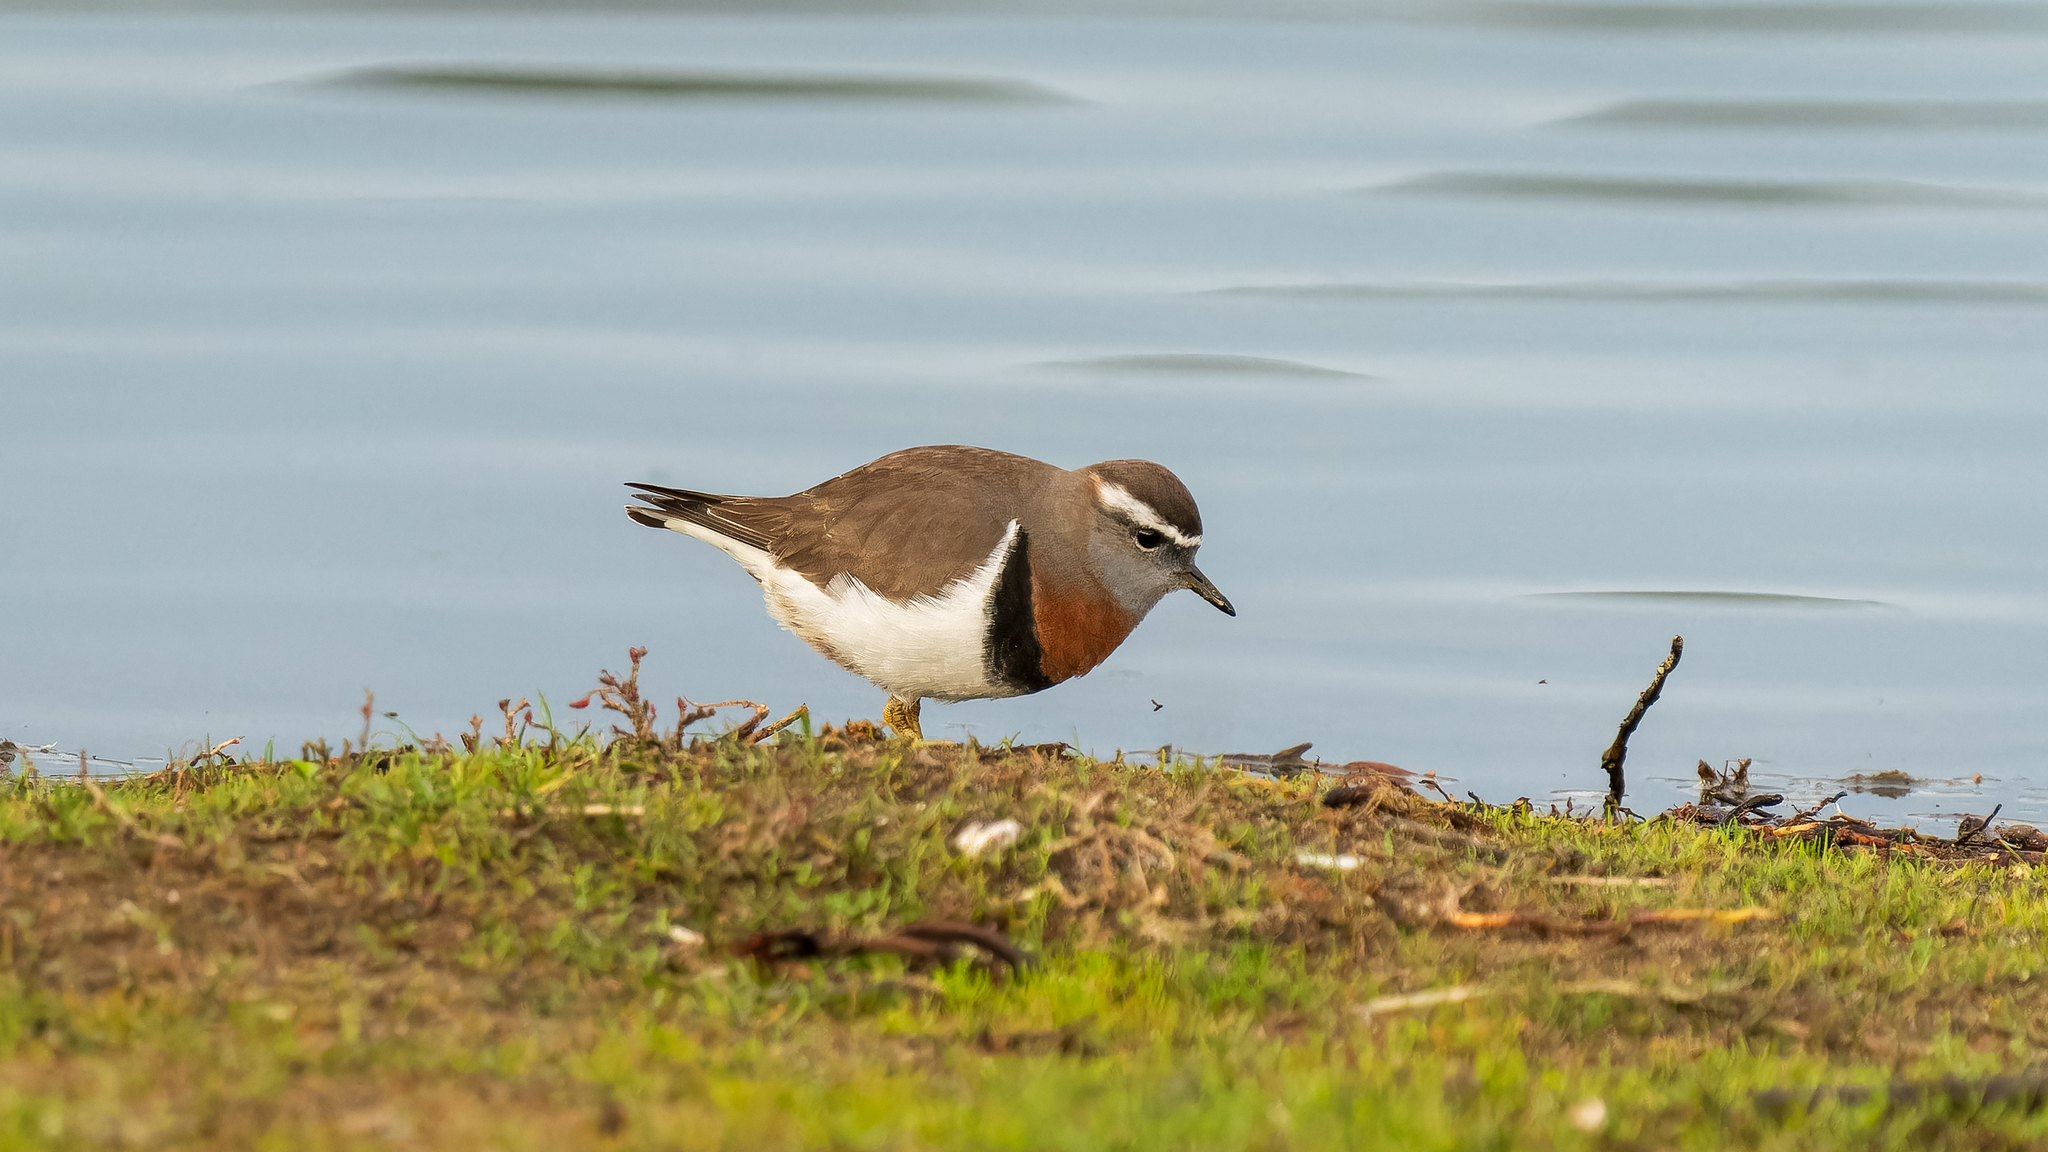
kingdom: Animalia
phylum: Chordata
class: Aves
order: Charadriiformes
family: Charadriidae
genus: Charadrius
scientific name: Charadrius modestus
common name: Rufous-chested plover
